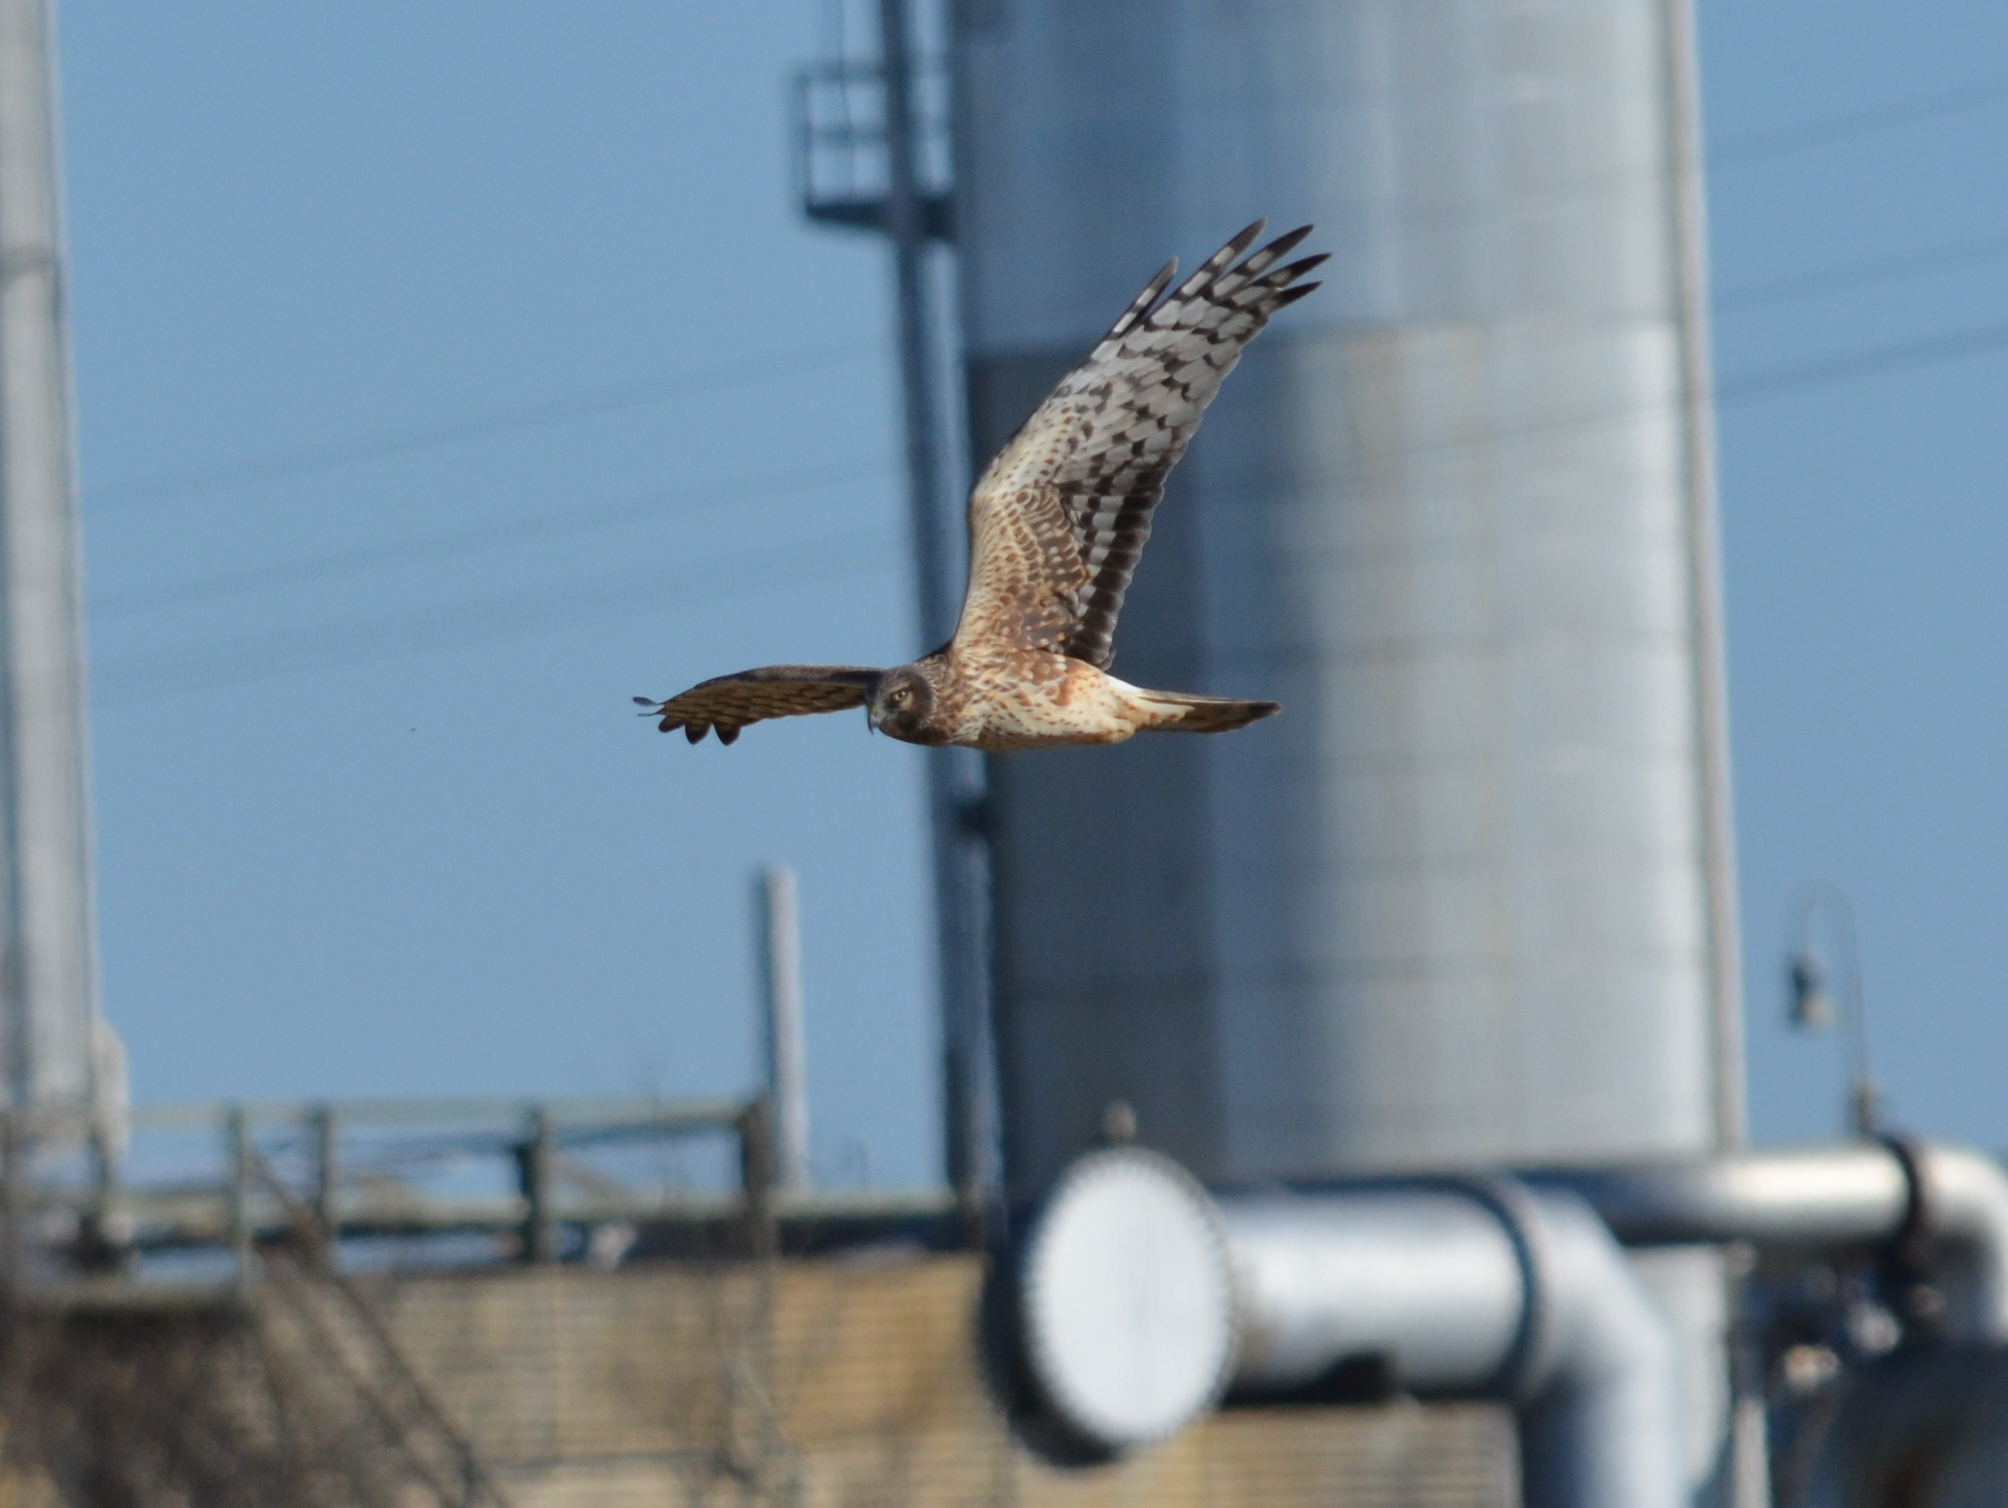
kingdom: Animalia
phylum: Chordata
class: Aves
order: Accipitriformes
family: Accipitridae
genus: Circus
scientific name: Circus cyaneus
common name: Hen harrier
